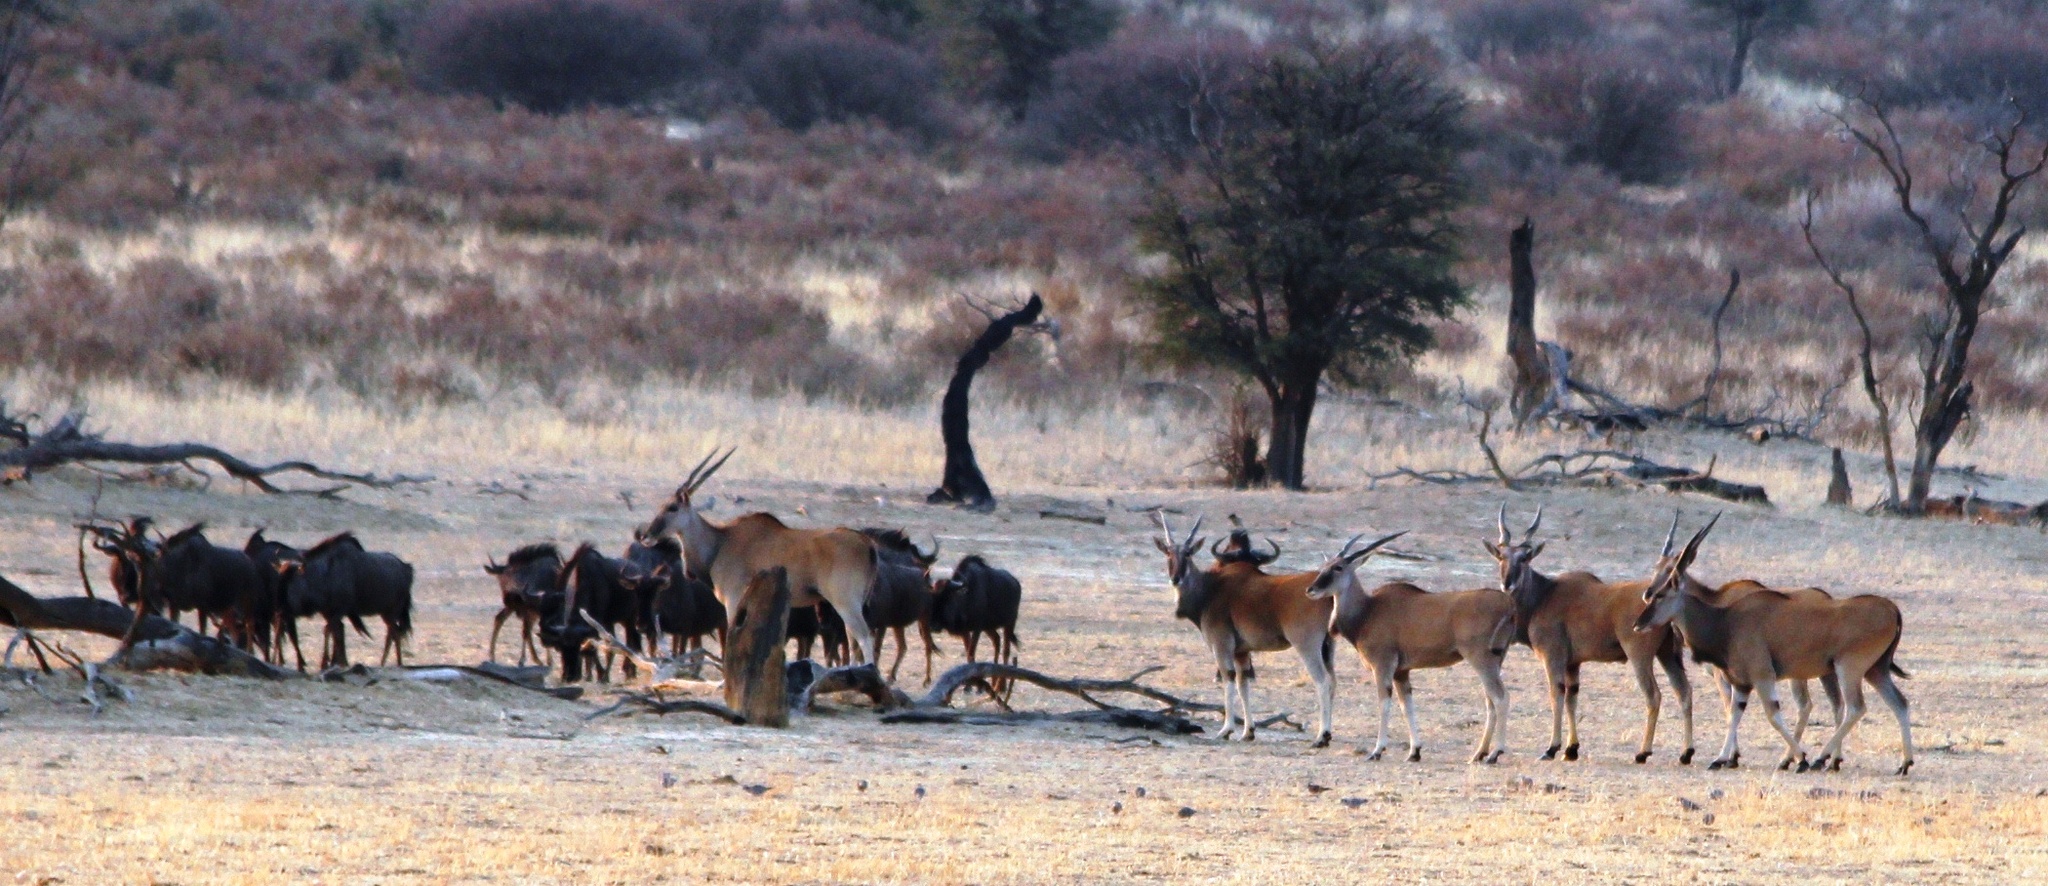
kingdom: Animalia
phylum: Chordata
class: Mammalia
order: Artiodactyla
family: Bovidae
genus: Taurotragus
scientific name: Taurotragus oryx
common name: Common eland
